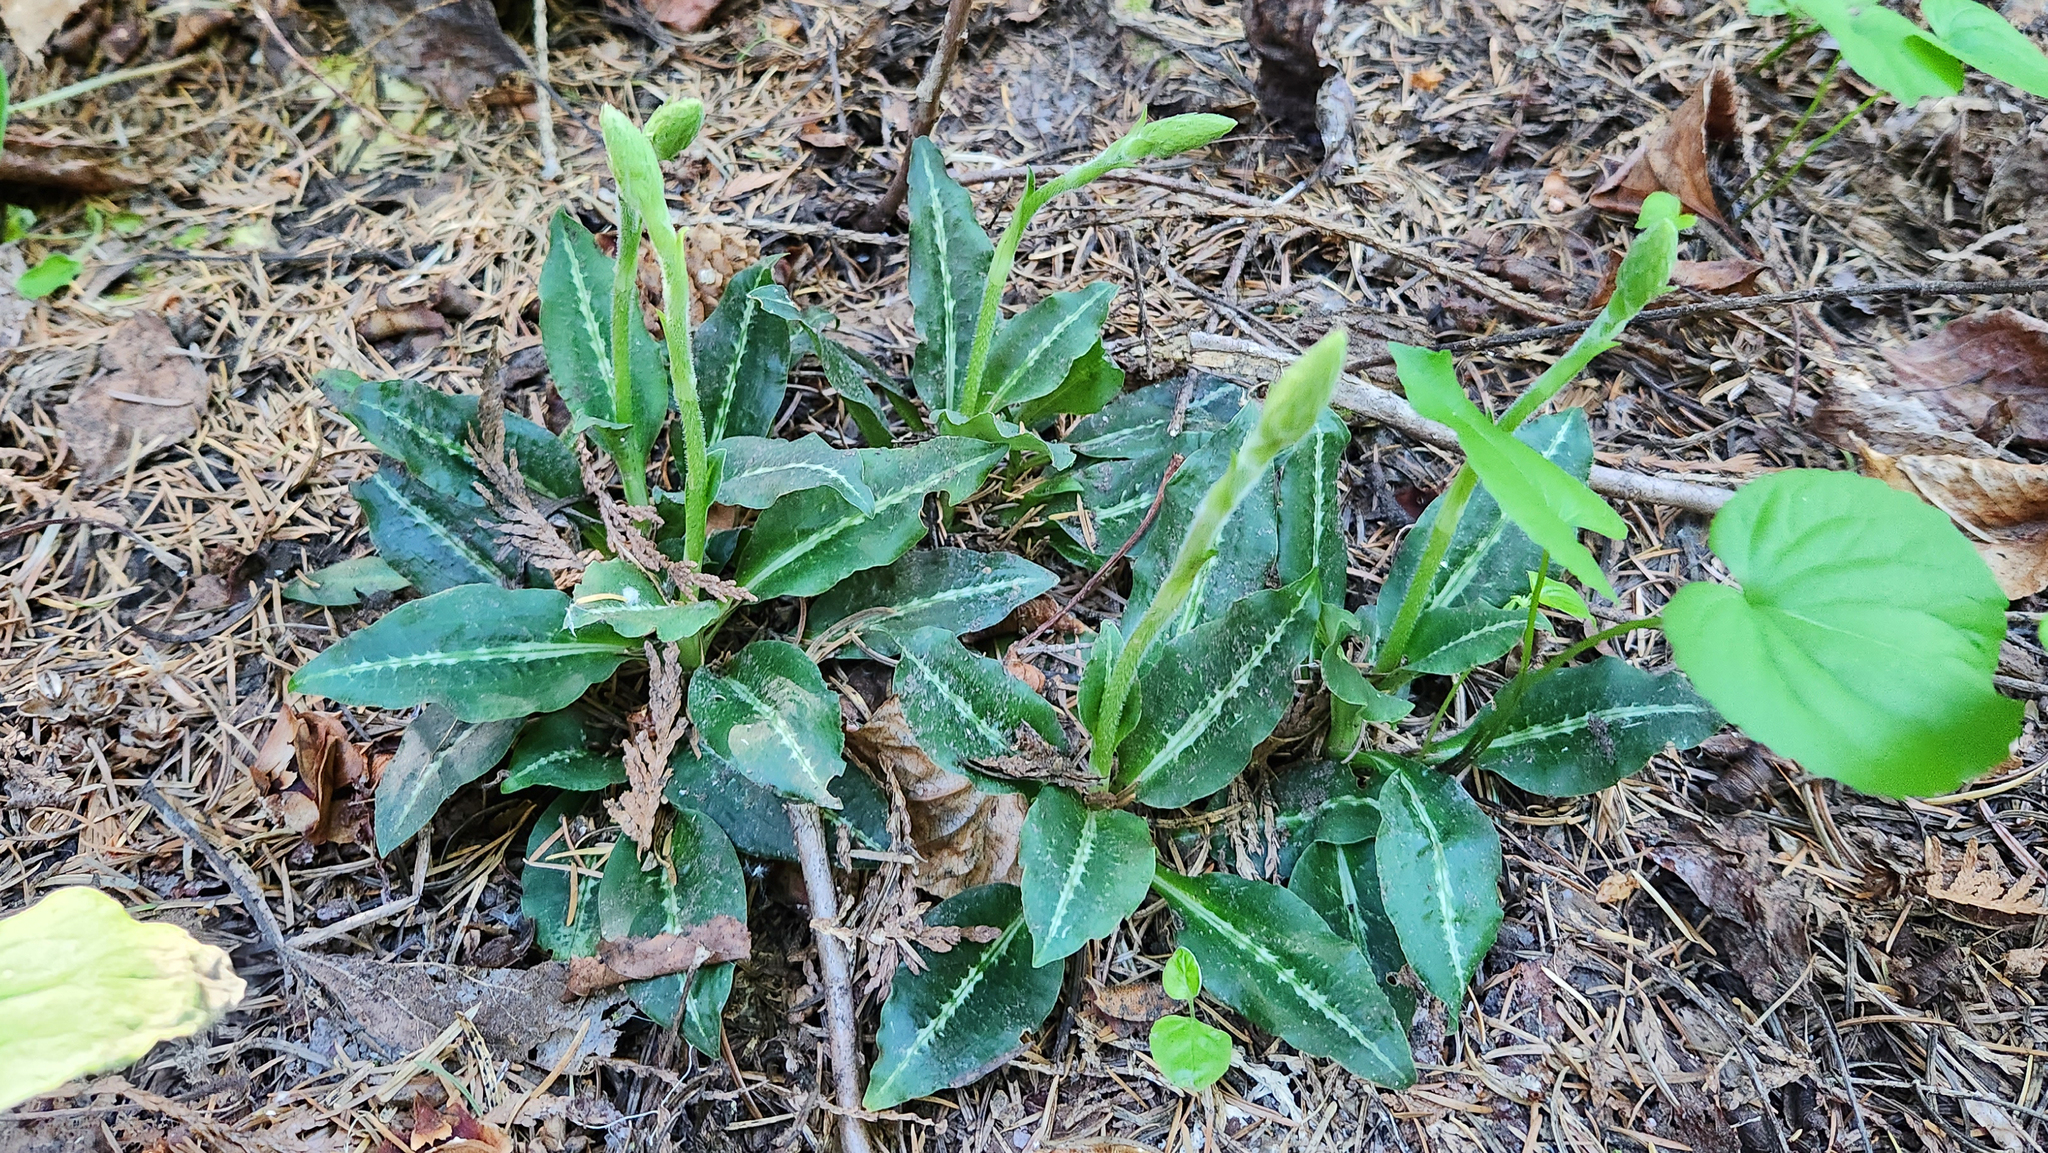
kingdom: Plantae
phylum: Tracheophyta
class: Liliopsida
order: Asparagales
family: Orchidaceae
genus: Goodyera
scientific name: Goodyera oblongifolia
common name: Giant rattlesnake-plantain
